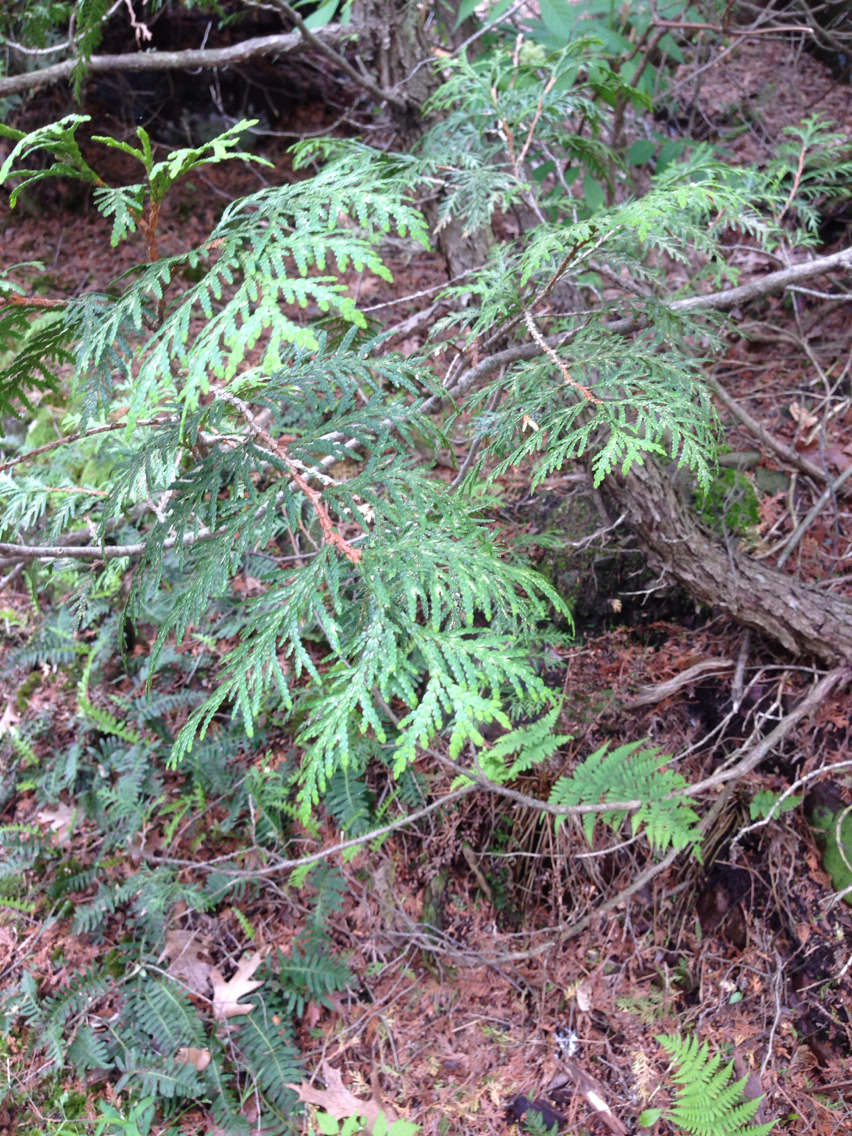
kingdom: Plantae
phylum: Tracheophyta
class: Pinopsida
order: Pinales
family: Cupressaceae
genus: Thuja
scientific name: Thuja occidentalis
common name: Northern white-cedar
